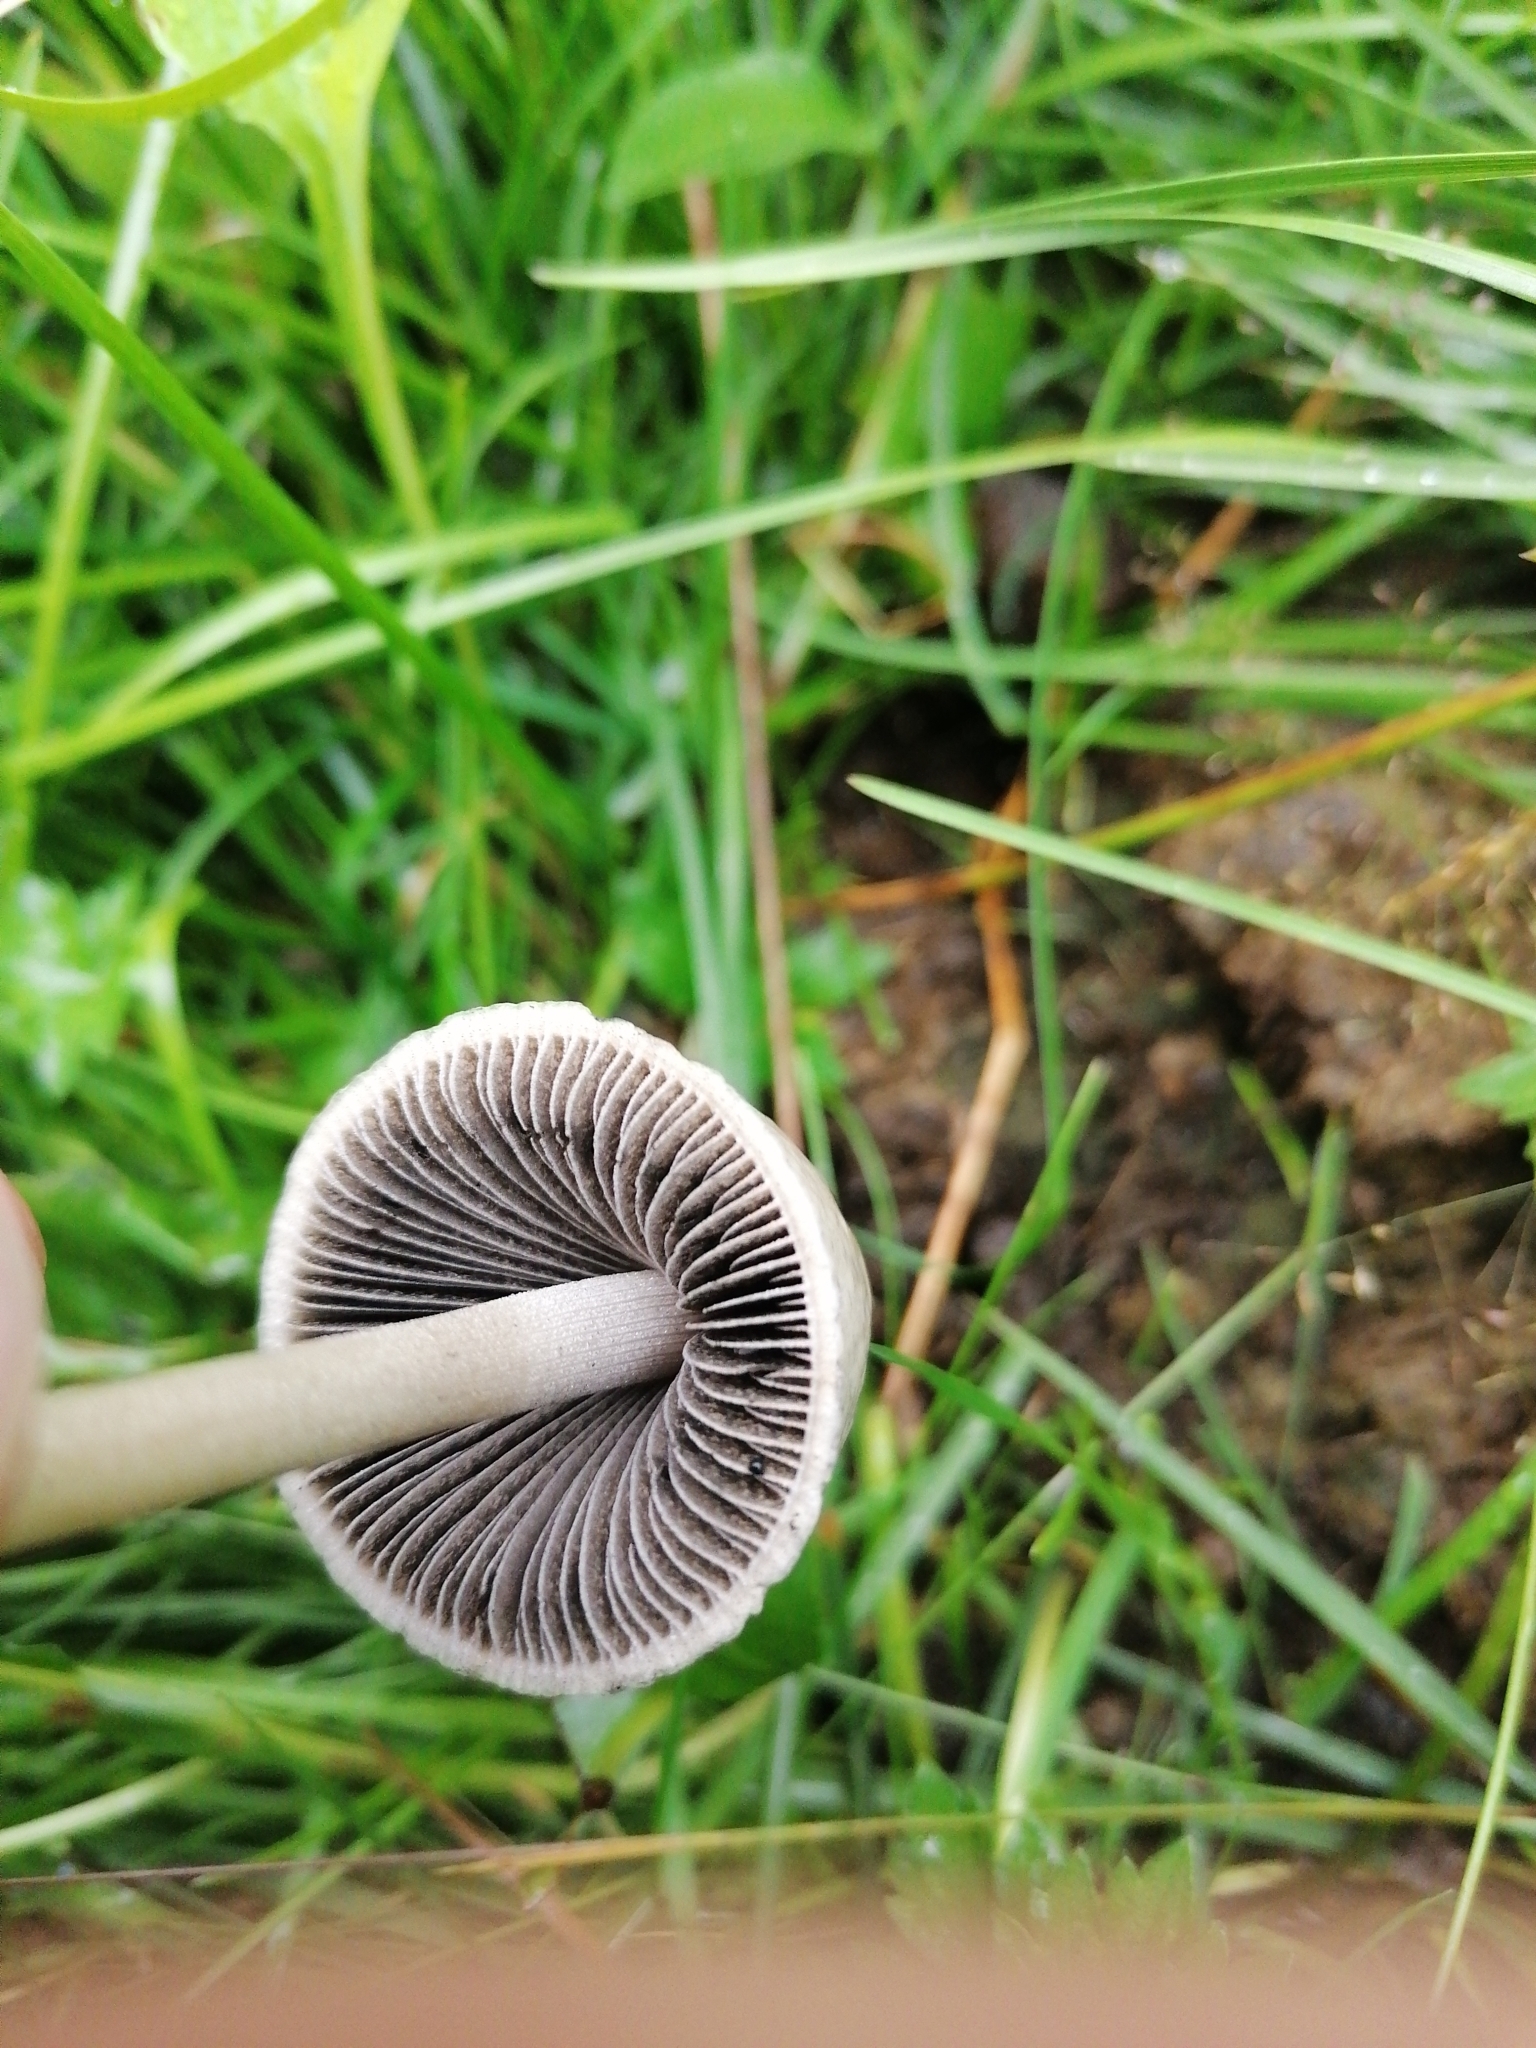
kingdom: Fungi
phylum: Basidiomycota
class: Agaricomycetes
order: Agaricales
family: Bolbitiaceae
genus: Panaeolus
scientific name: Panaeolus semiovatus
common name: Shiny mottlegill
